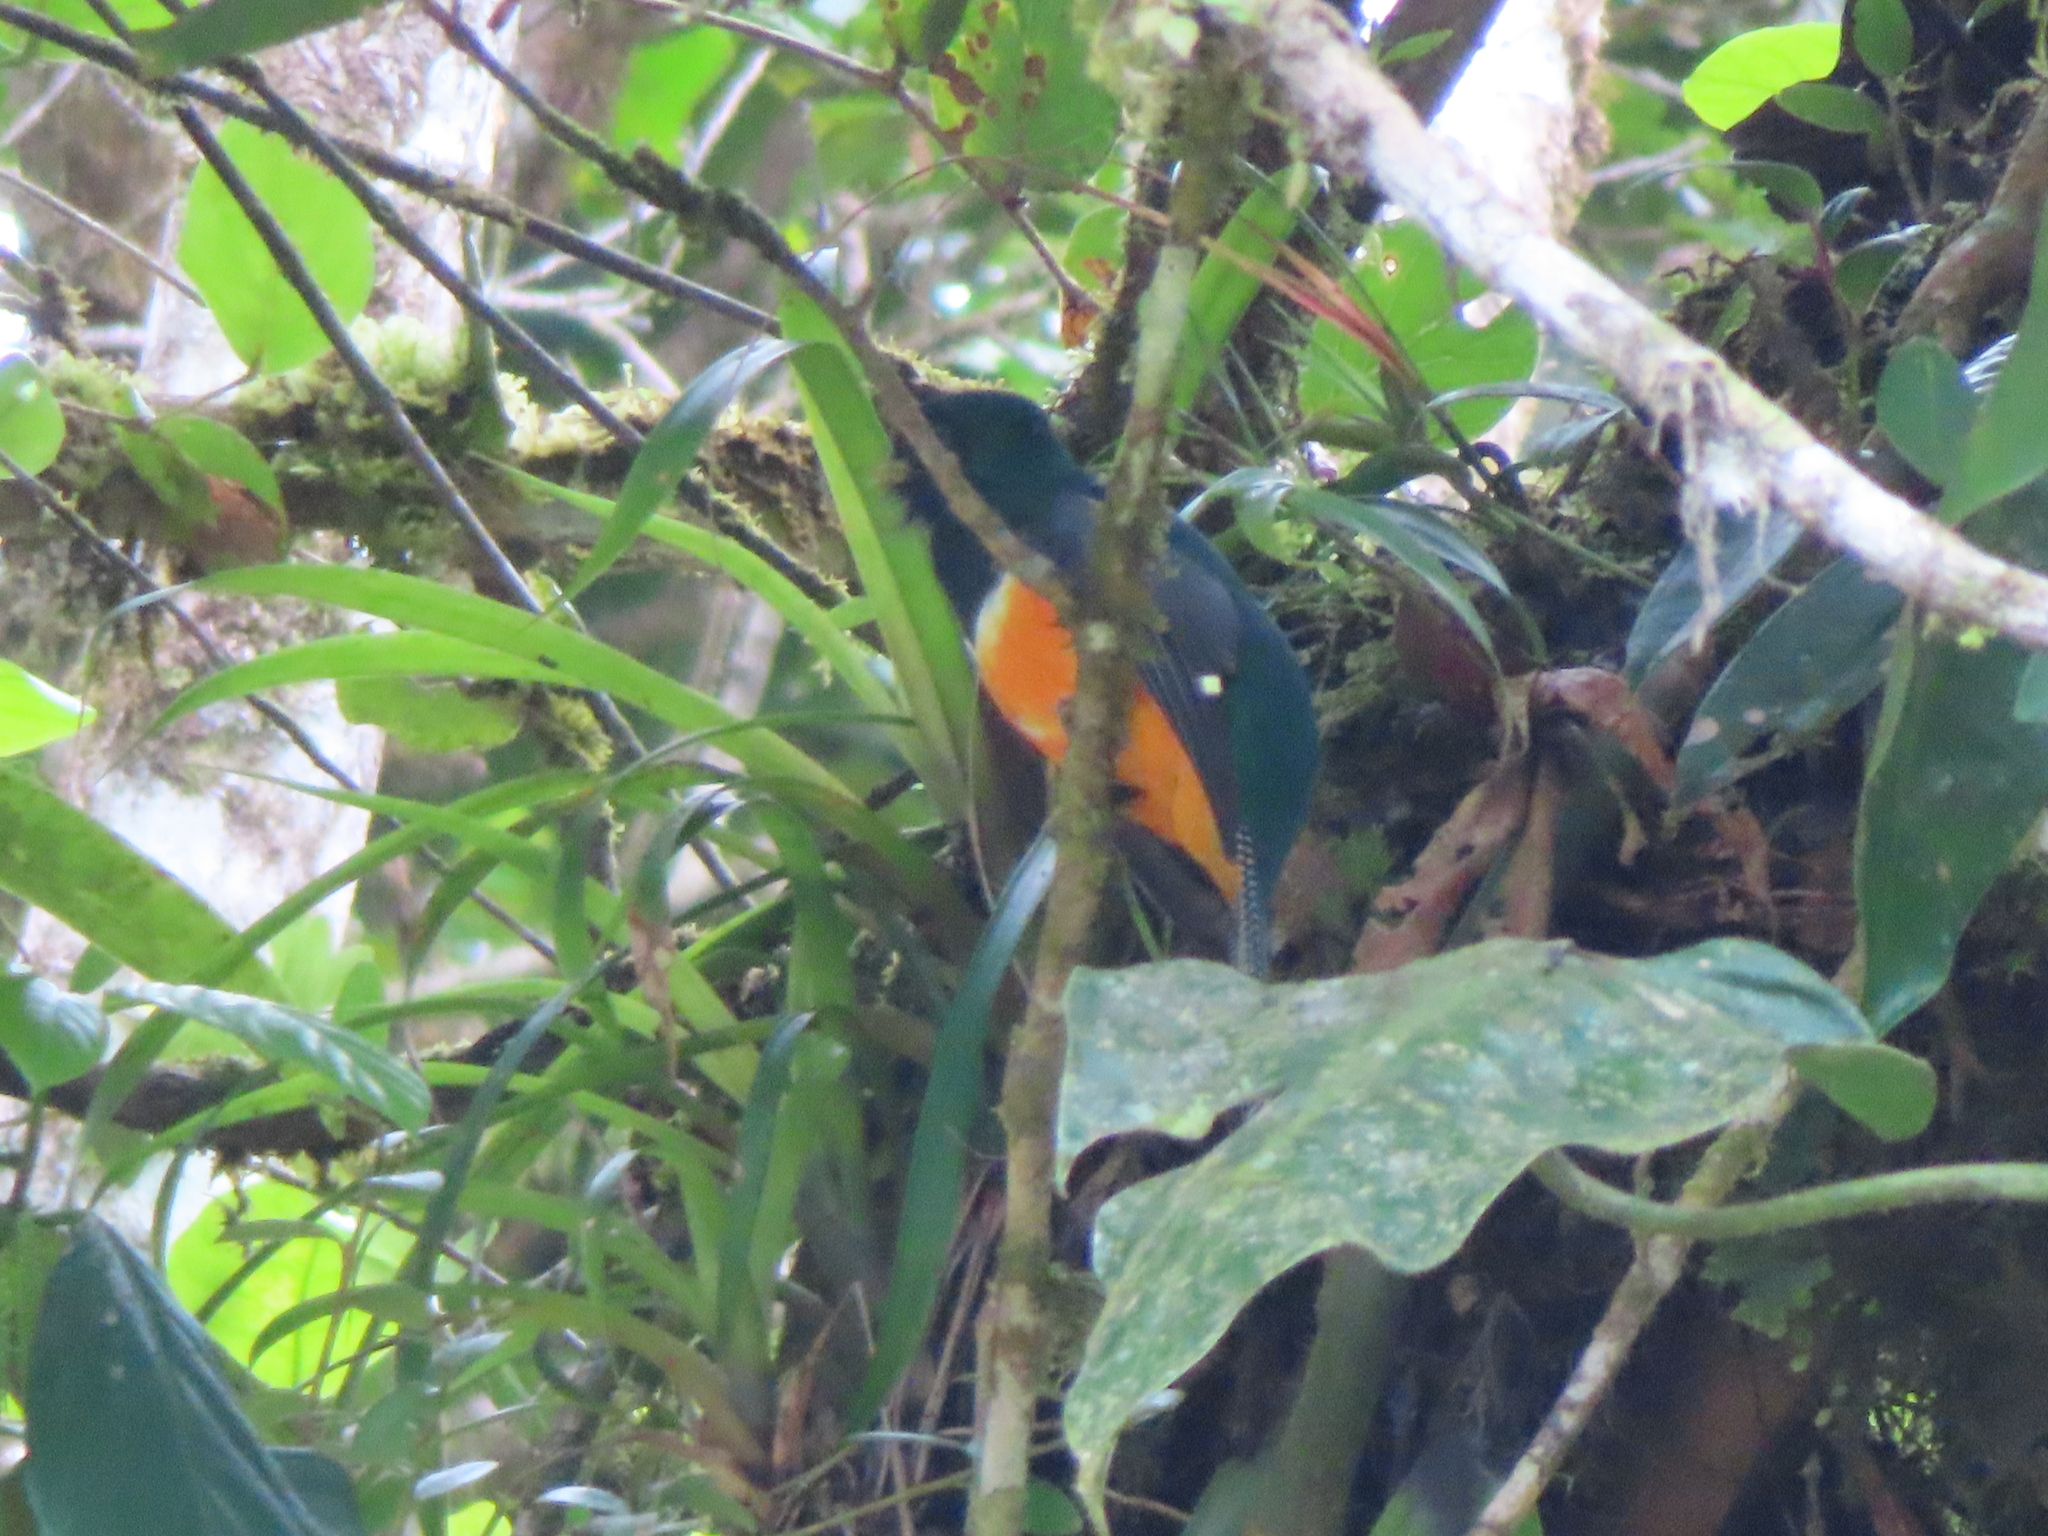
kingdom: Animalia
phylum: Chordata
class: Aves
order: Trogoniformes
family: Trogonidae
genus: Trogon
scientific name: Trogon collaris
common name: Collared trogon
